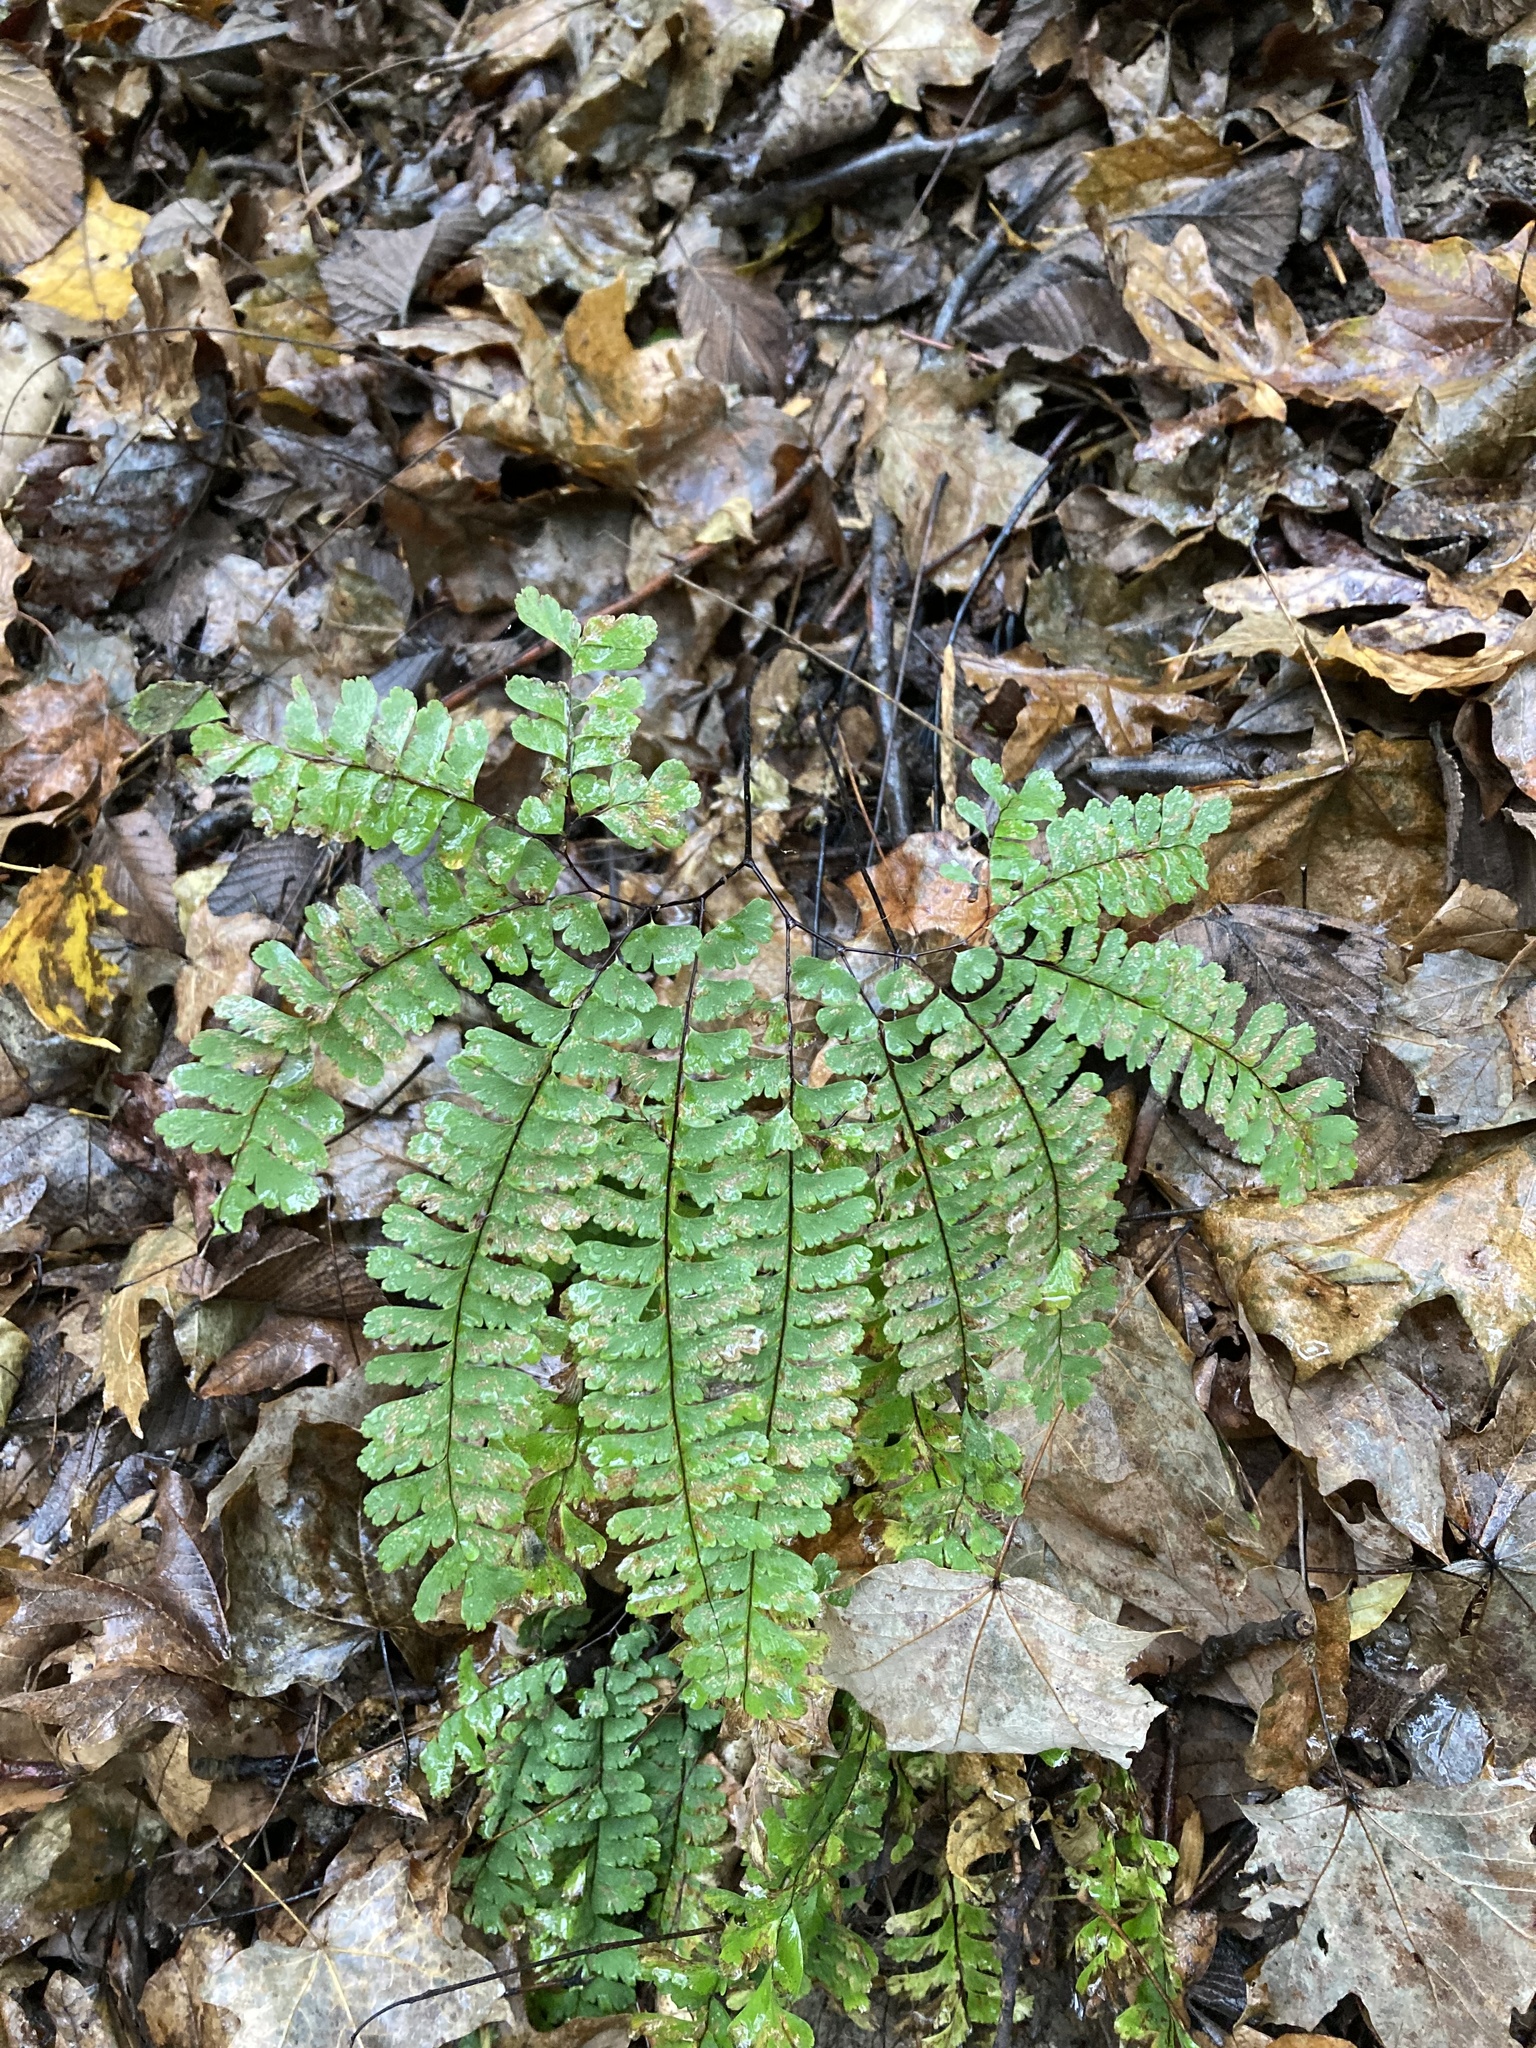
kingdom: Plantae
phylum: Tracheophyta
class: Polypodiopsida
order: Polypodiales
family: Pteridaceae
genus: Adiantum
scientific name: Adiantum pedatum
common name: Five-finger fern
